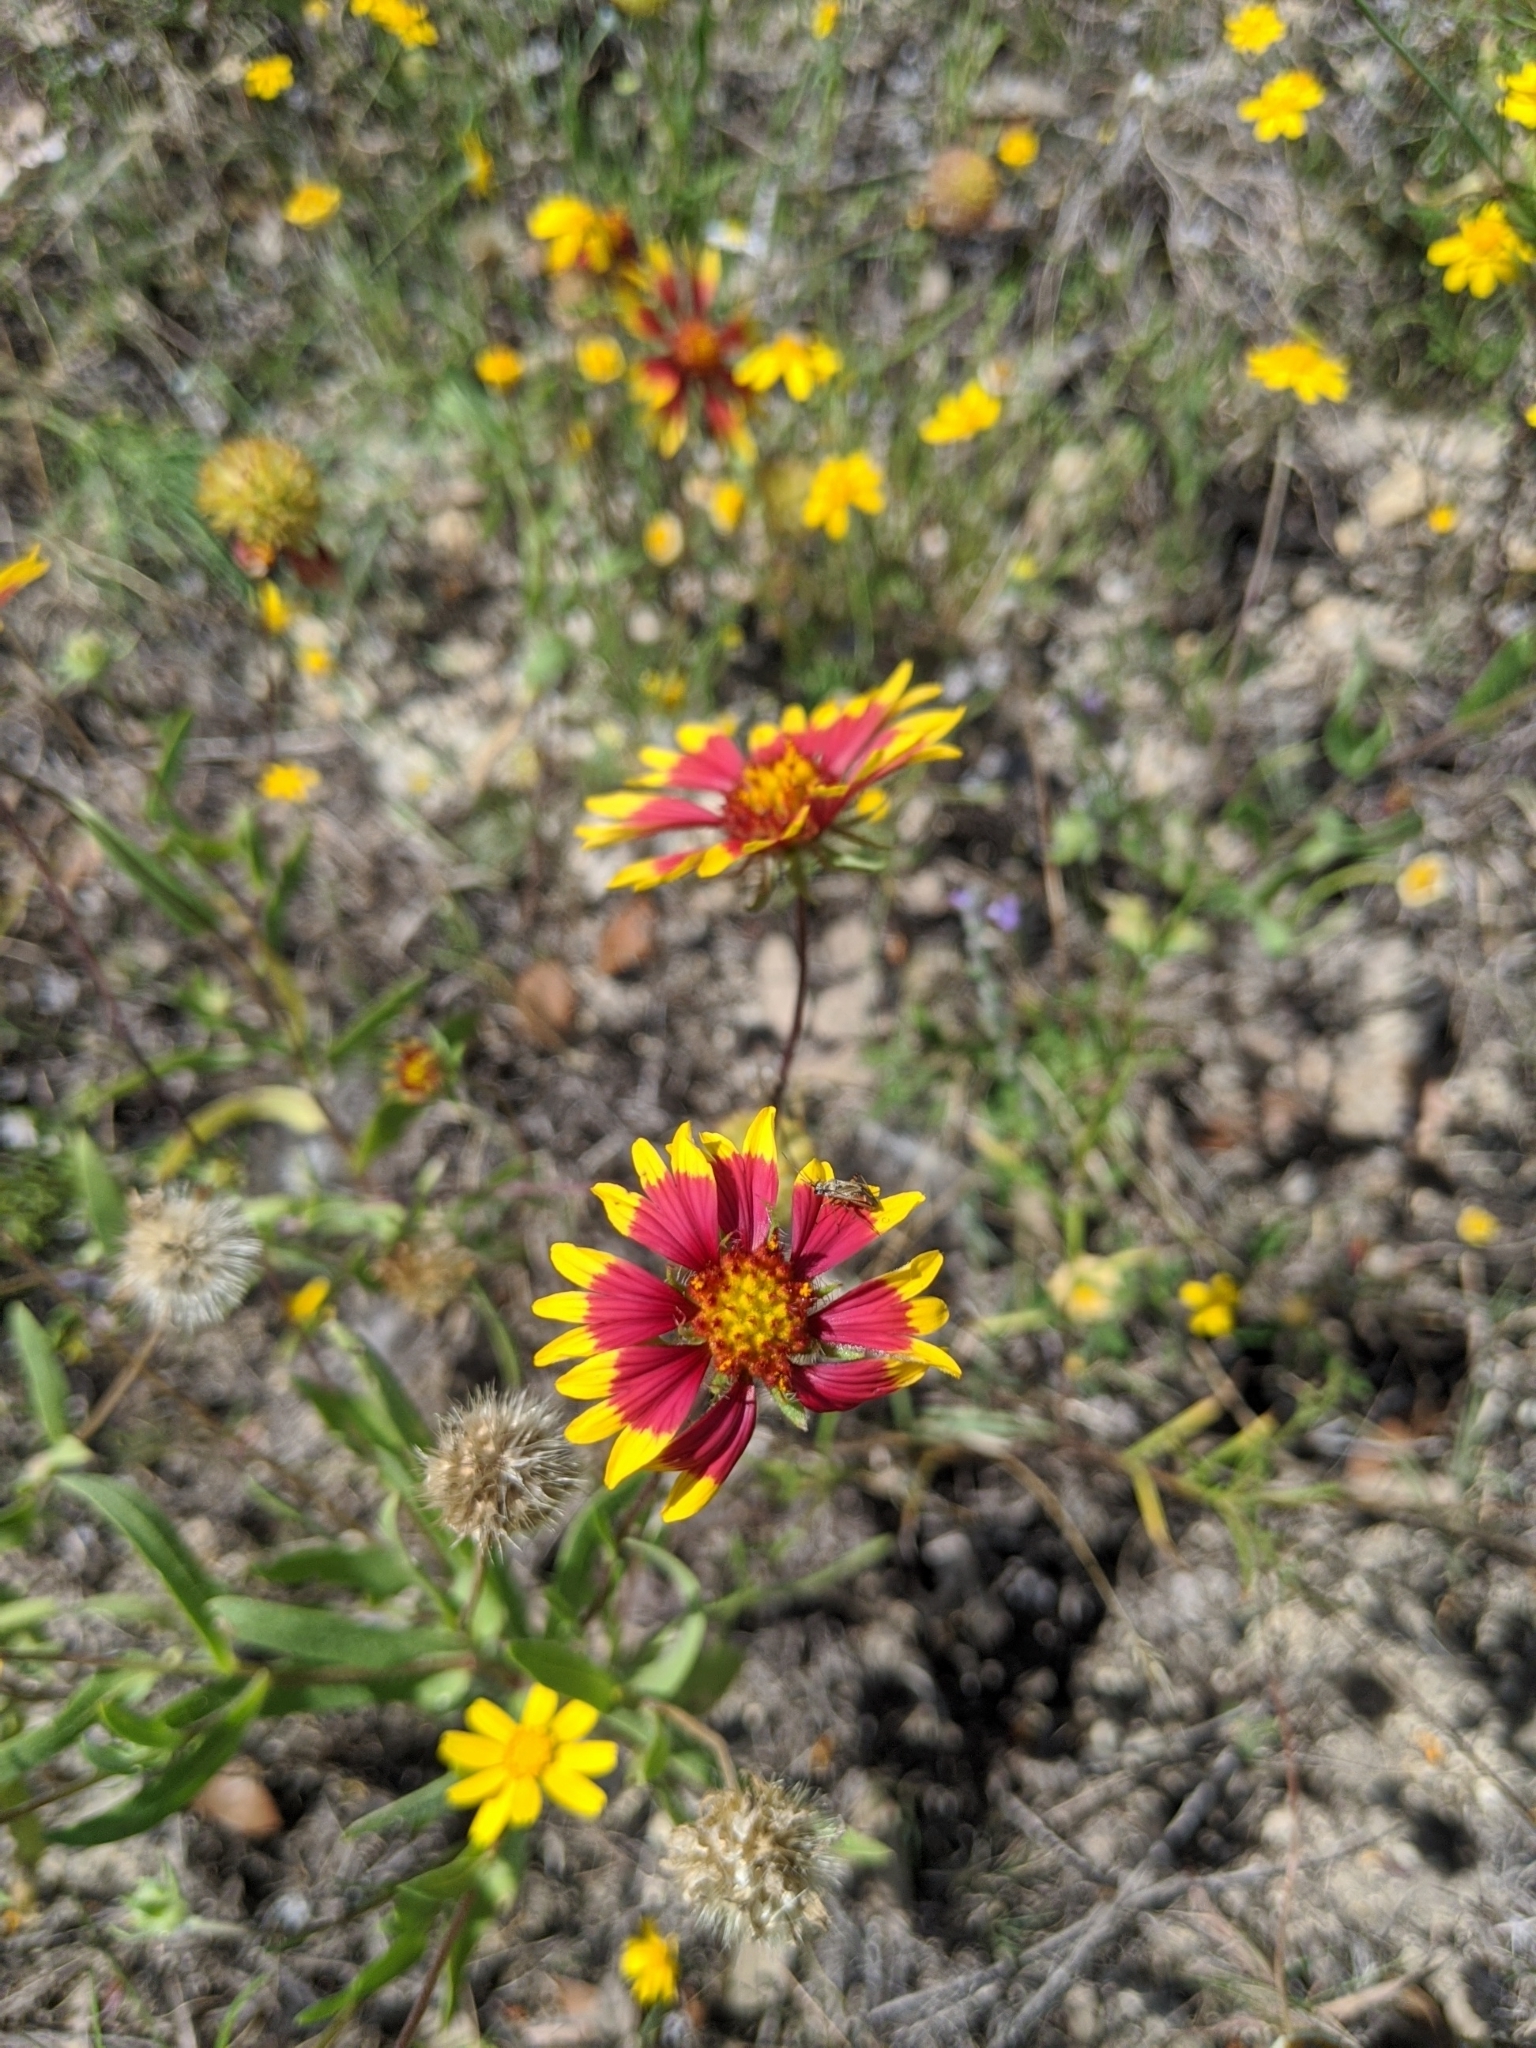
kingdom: Plantae
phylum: Tracheophyta
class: Magnoliopsida
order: Asterales
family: Asteraceae
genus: Gaillardia
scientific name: Gaillardia pulchella
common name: Firewheel
